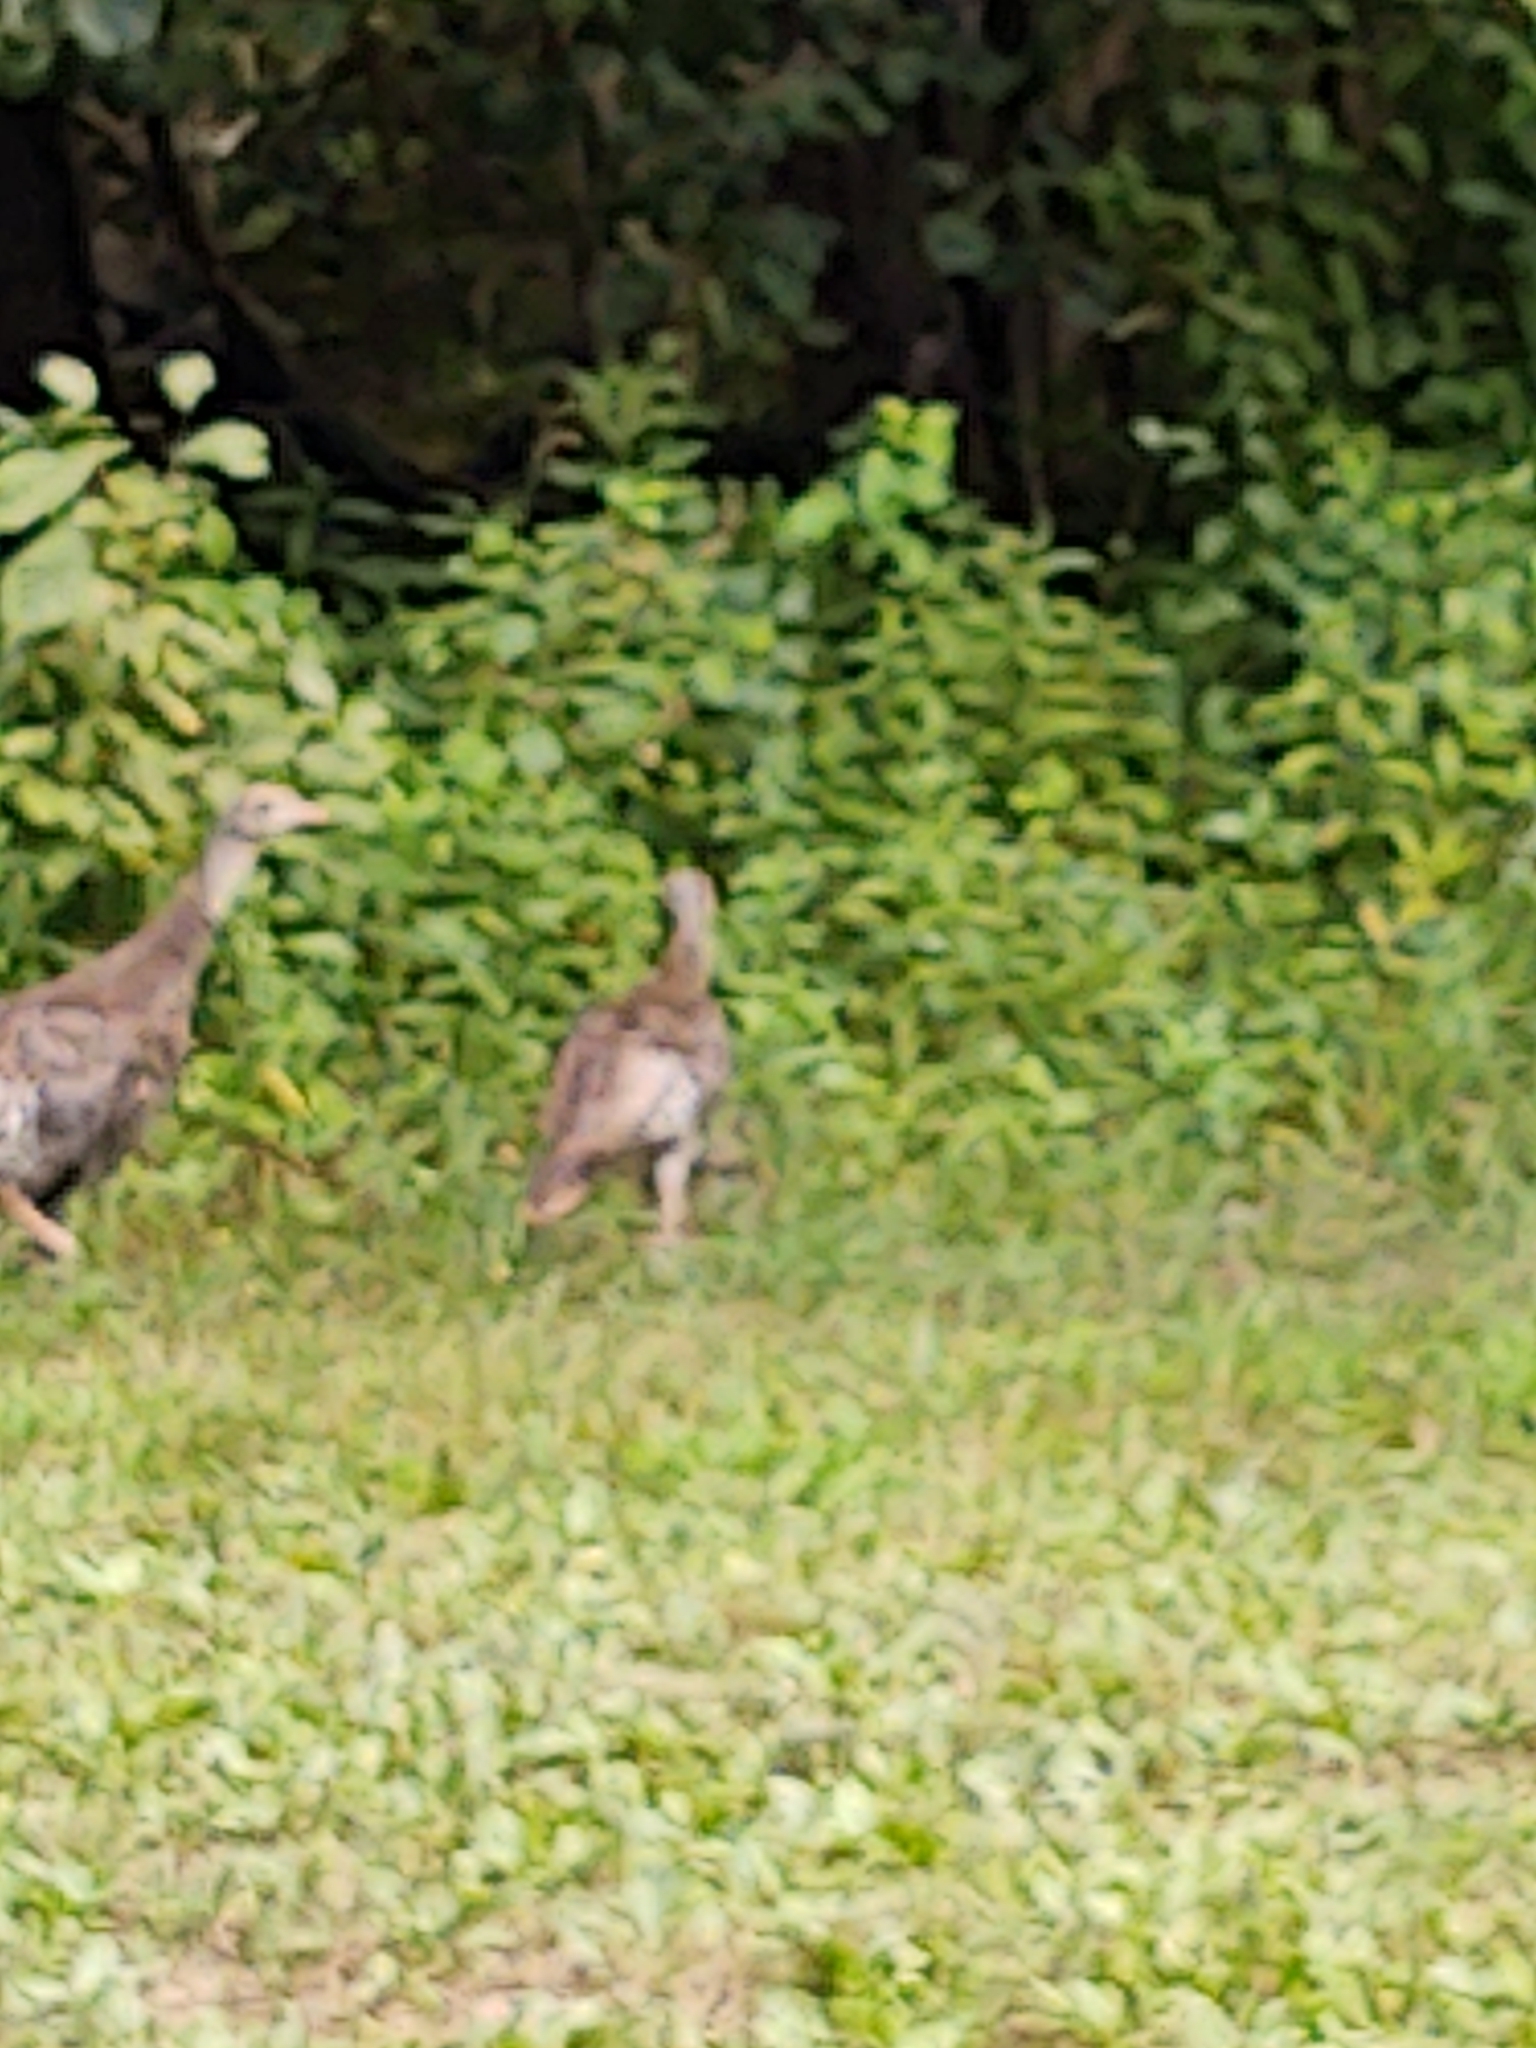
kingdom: Animalia
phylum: Chordata
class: Aves
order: Galliformes
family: Phasianidae
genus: Meleagris
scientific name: Meleagris gallopavo
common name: Wild turkey
